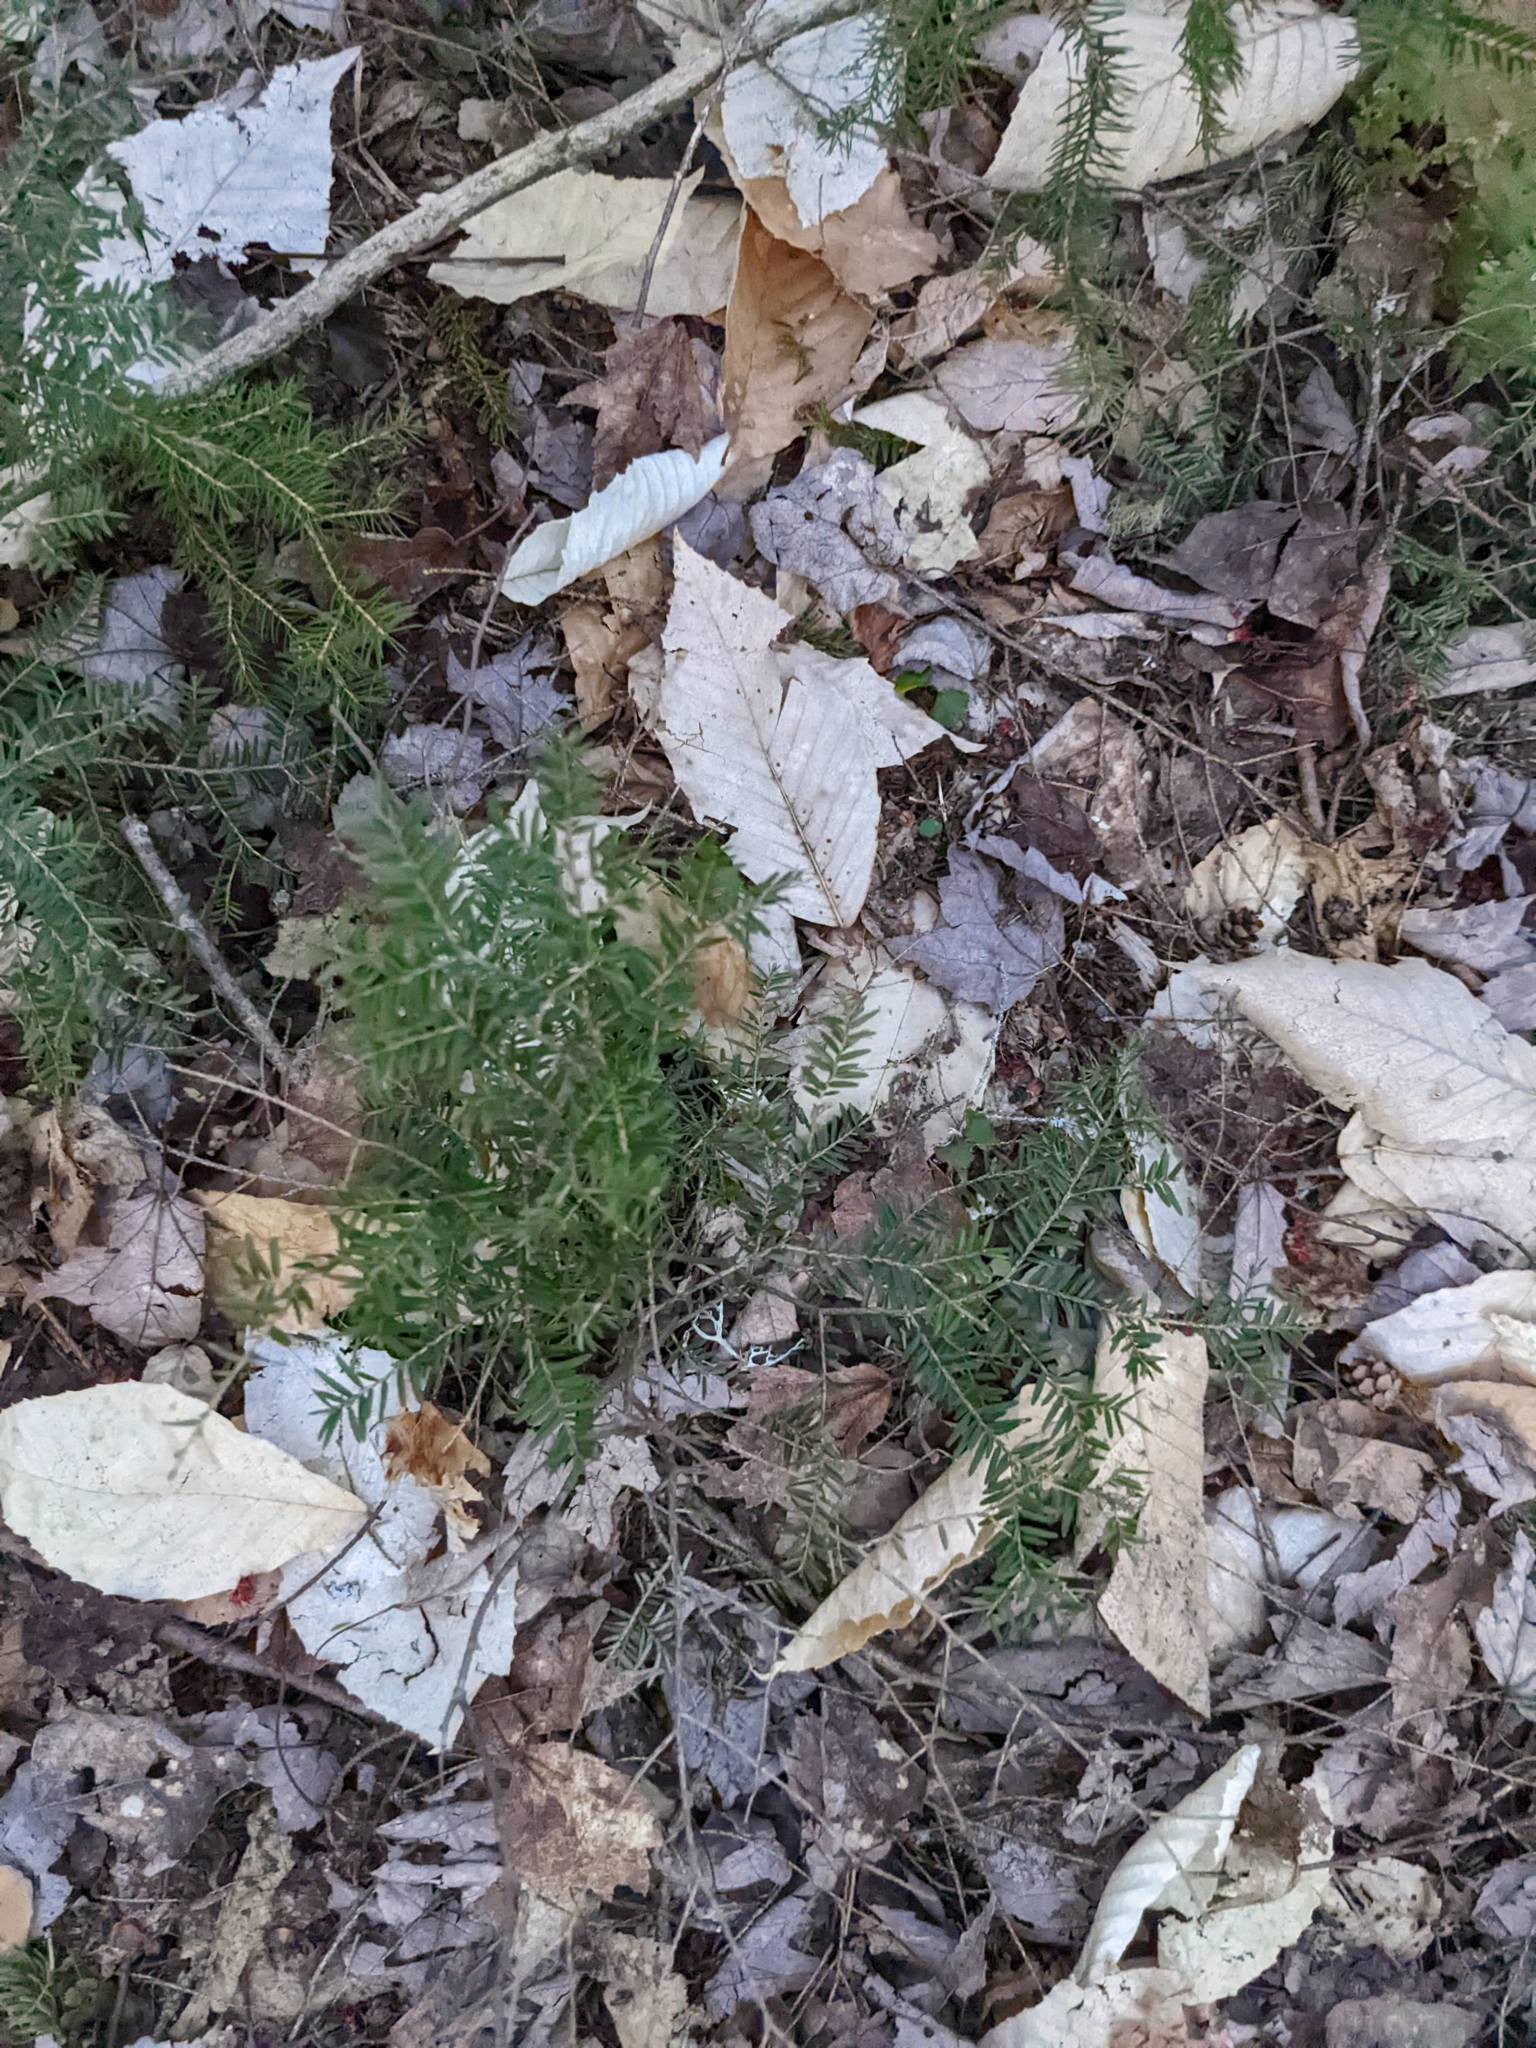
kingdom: Plantae
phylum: Tracheophyta
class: Pinopsida
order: Pinales
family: Pinaceae
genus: Tsuga
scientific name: Tsuga canadensis
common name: Eastern hemlock
